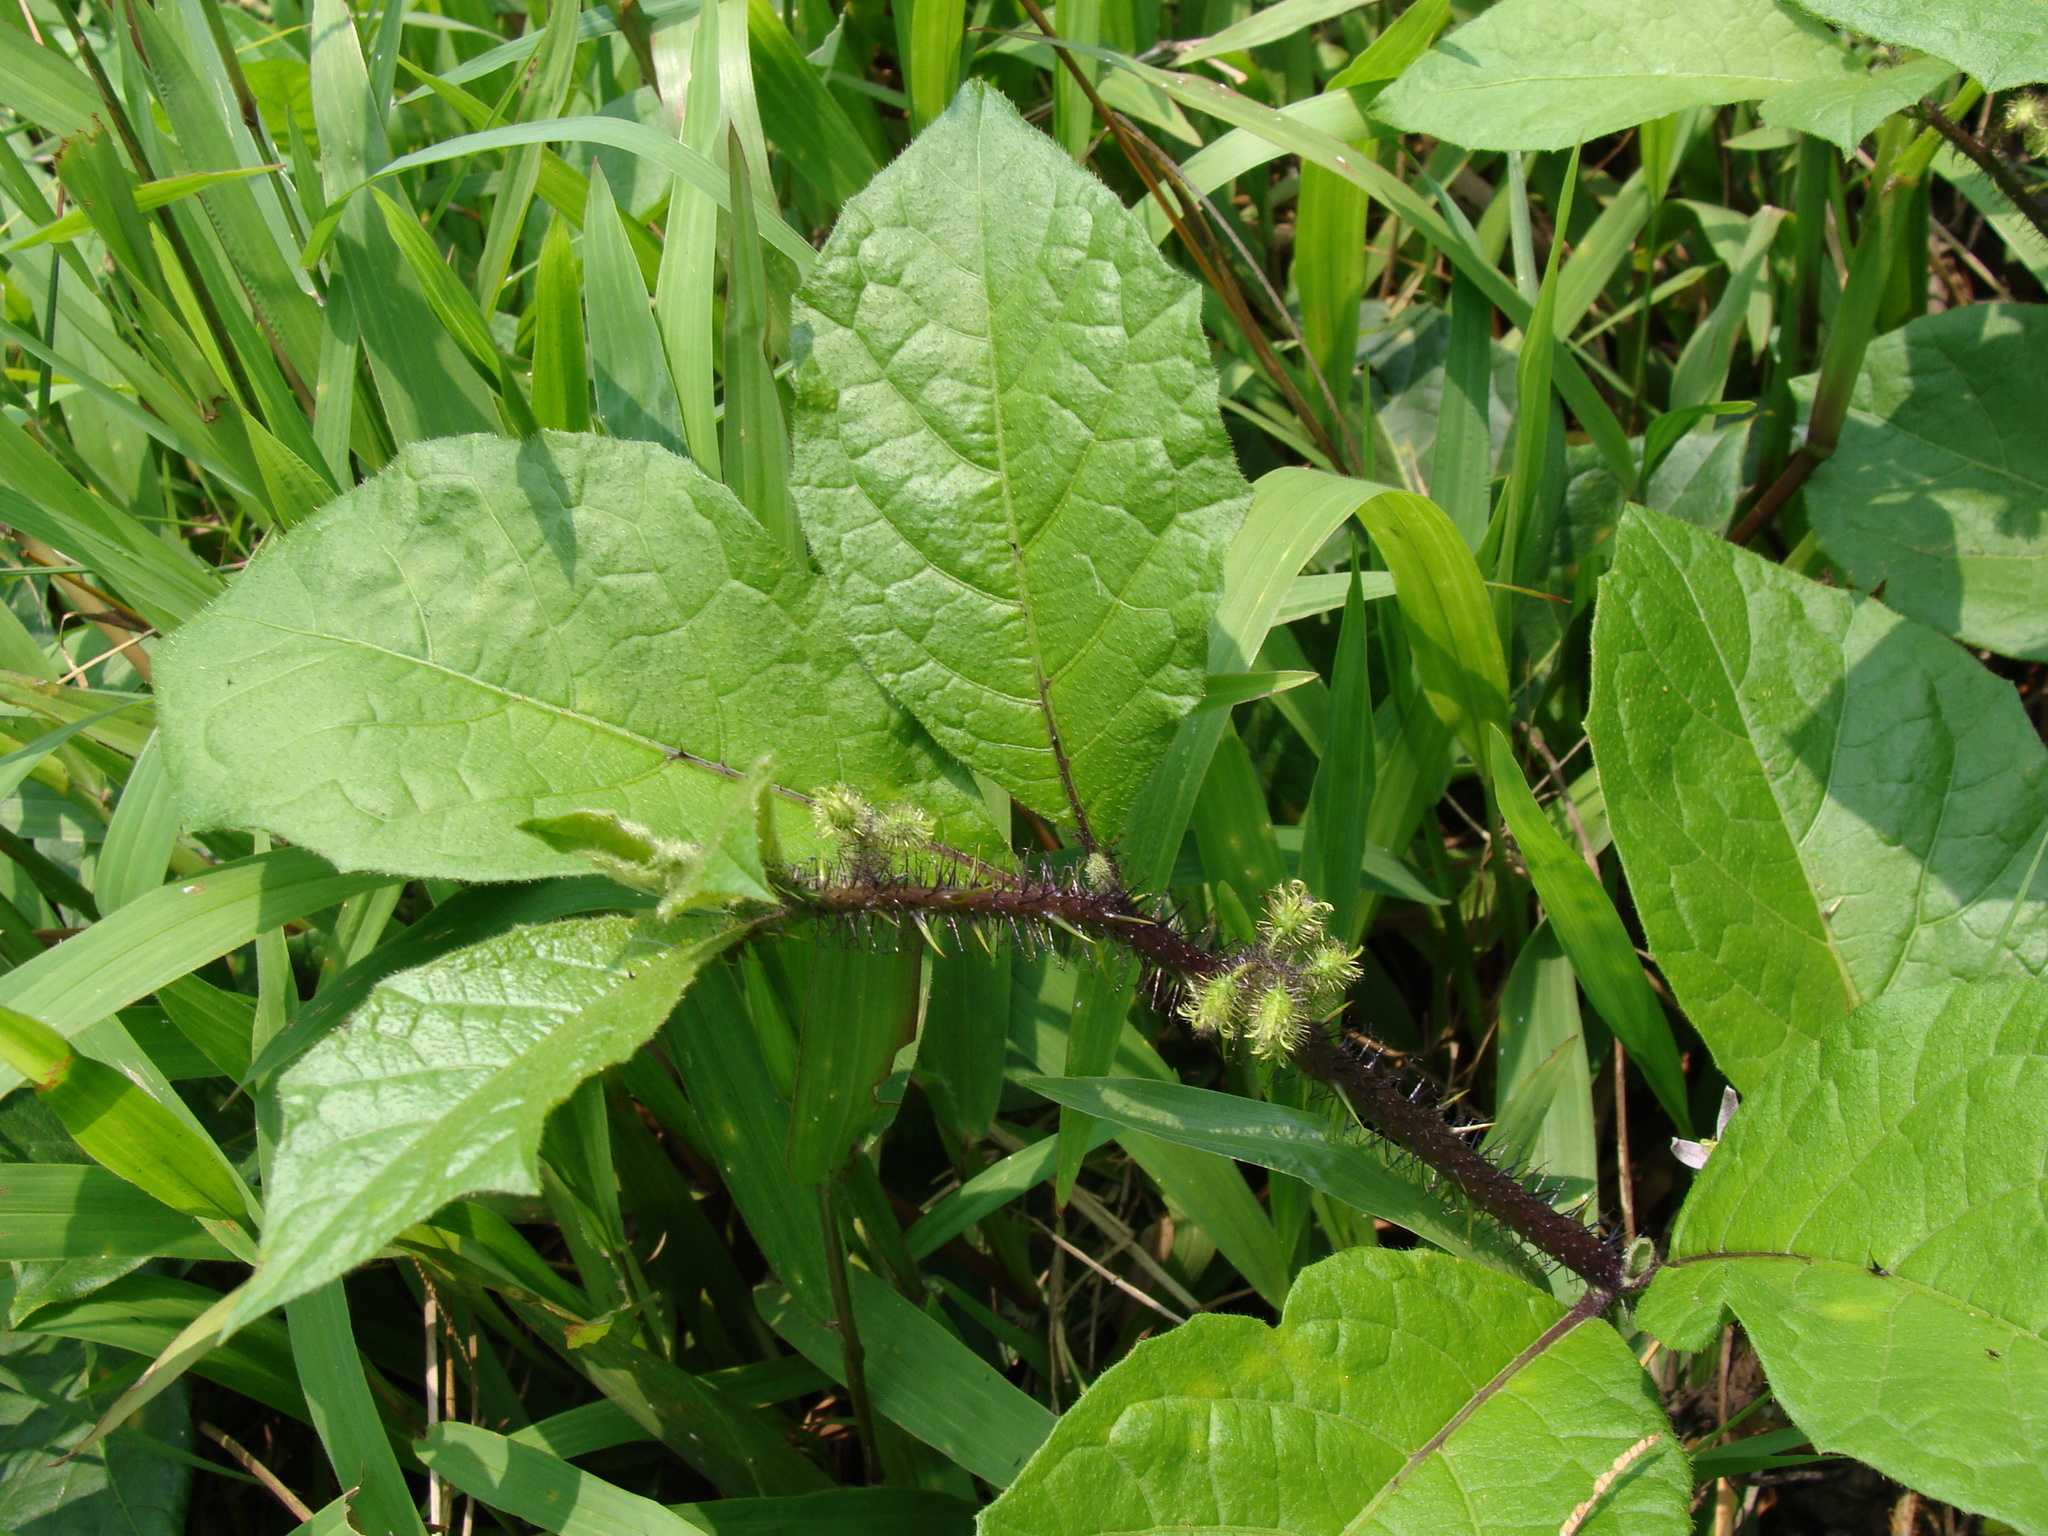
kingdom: Plantae
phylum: Tracheophyta
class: Magnoliopsida
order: Solanales
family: Solanaceae
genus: Solanum
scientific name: Solanum volubile
